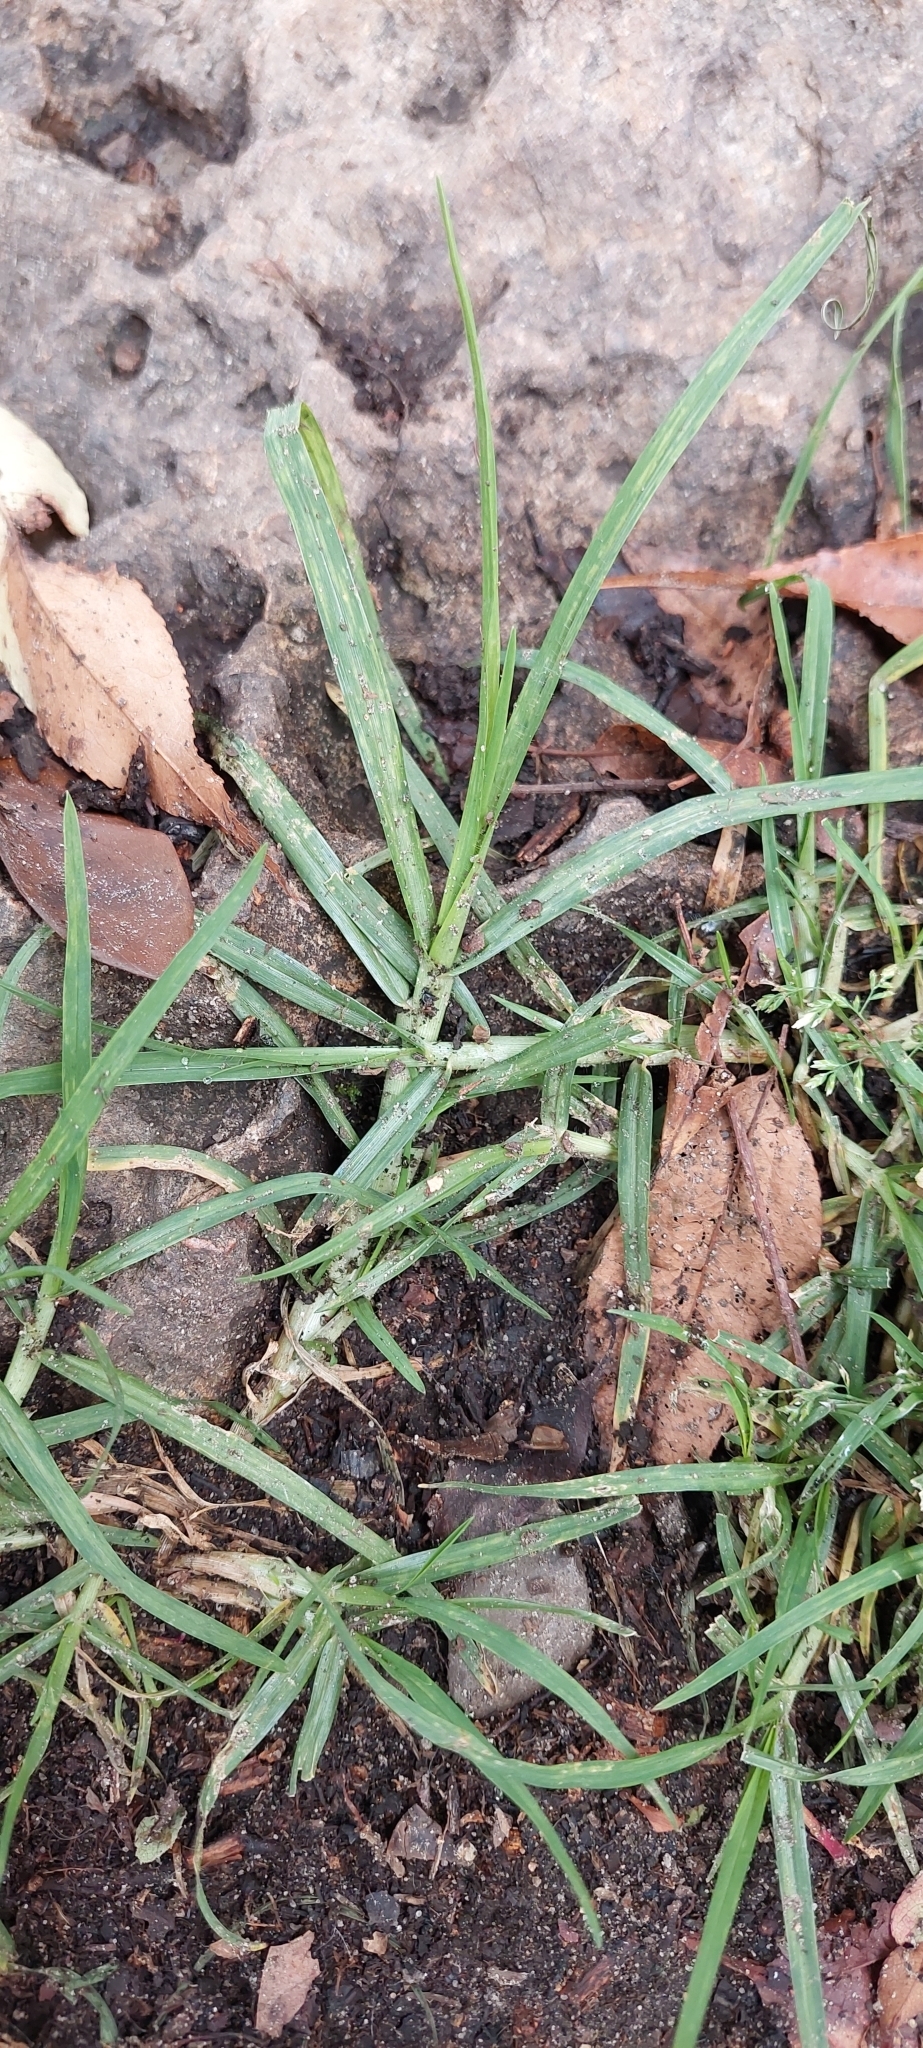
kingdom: Plantae
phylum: Tracheophyta
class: Liliopsida
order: Poales
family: Poaceae
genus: Cenchrus
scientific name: Cenchrus clandestinus
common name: Kikuyugrass
